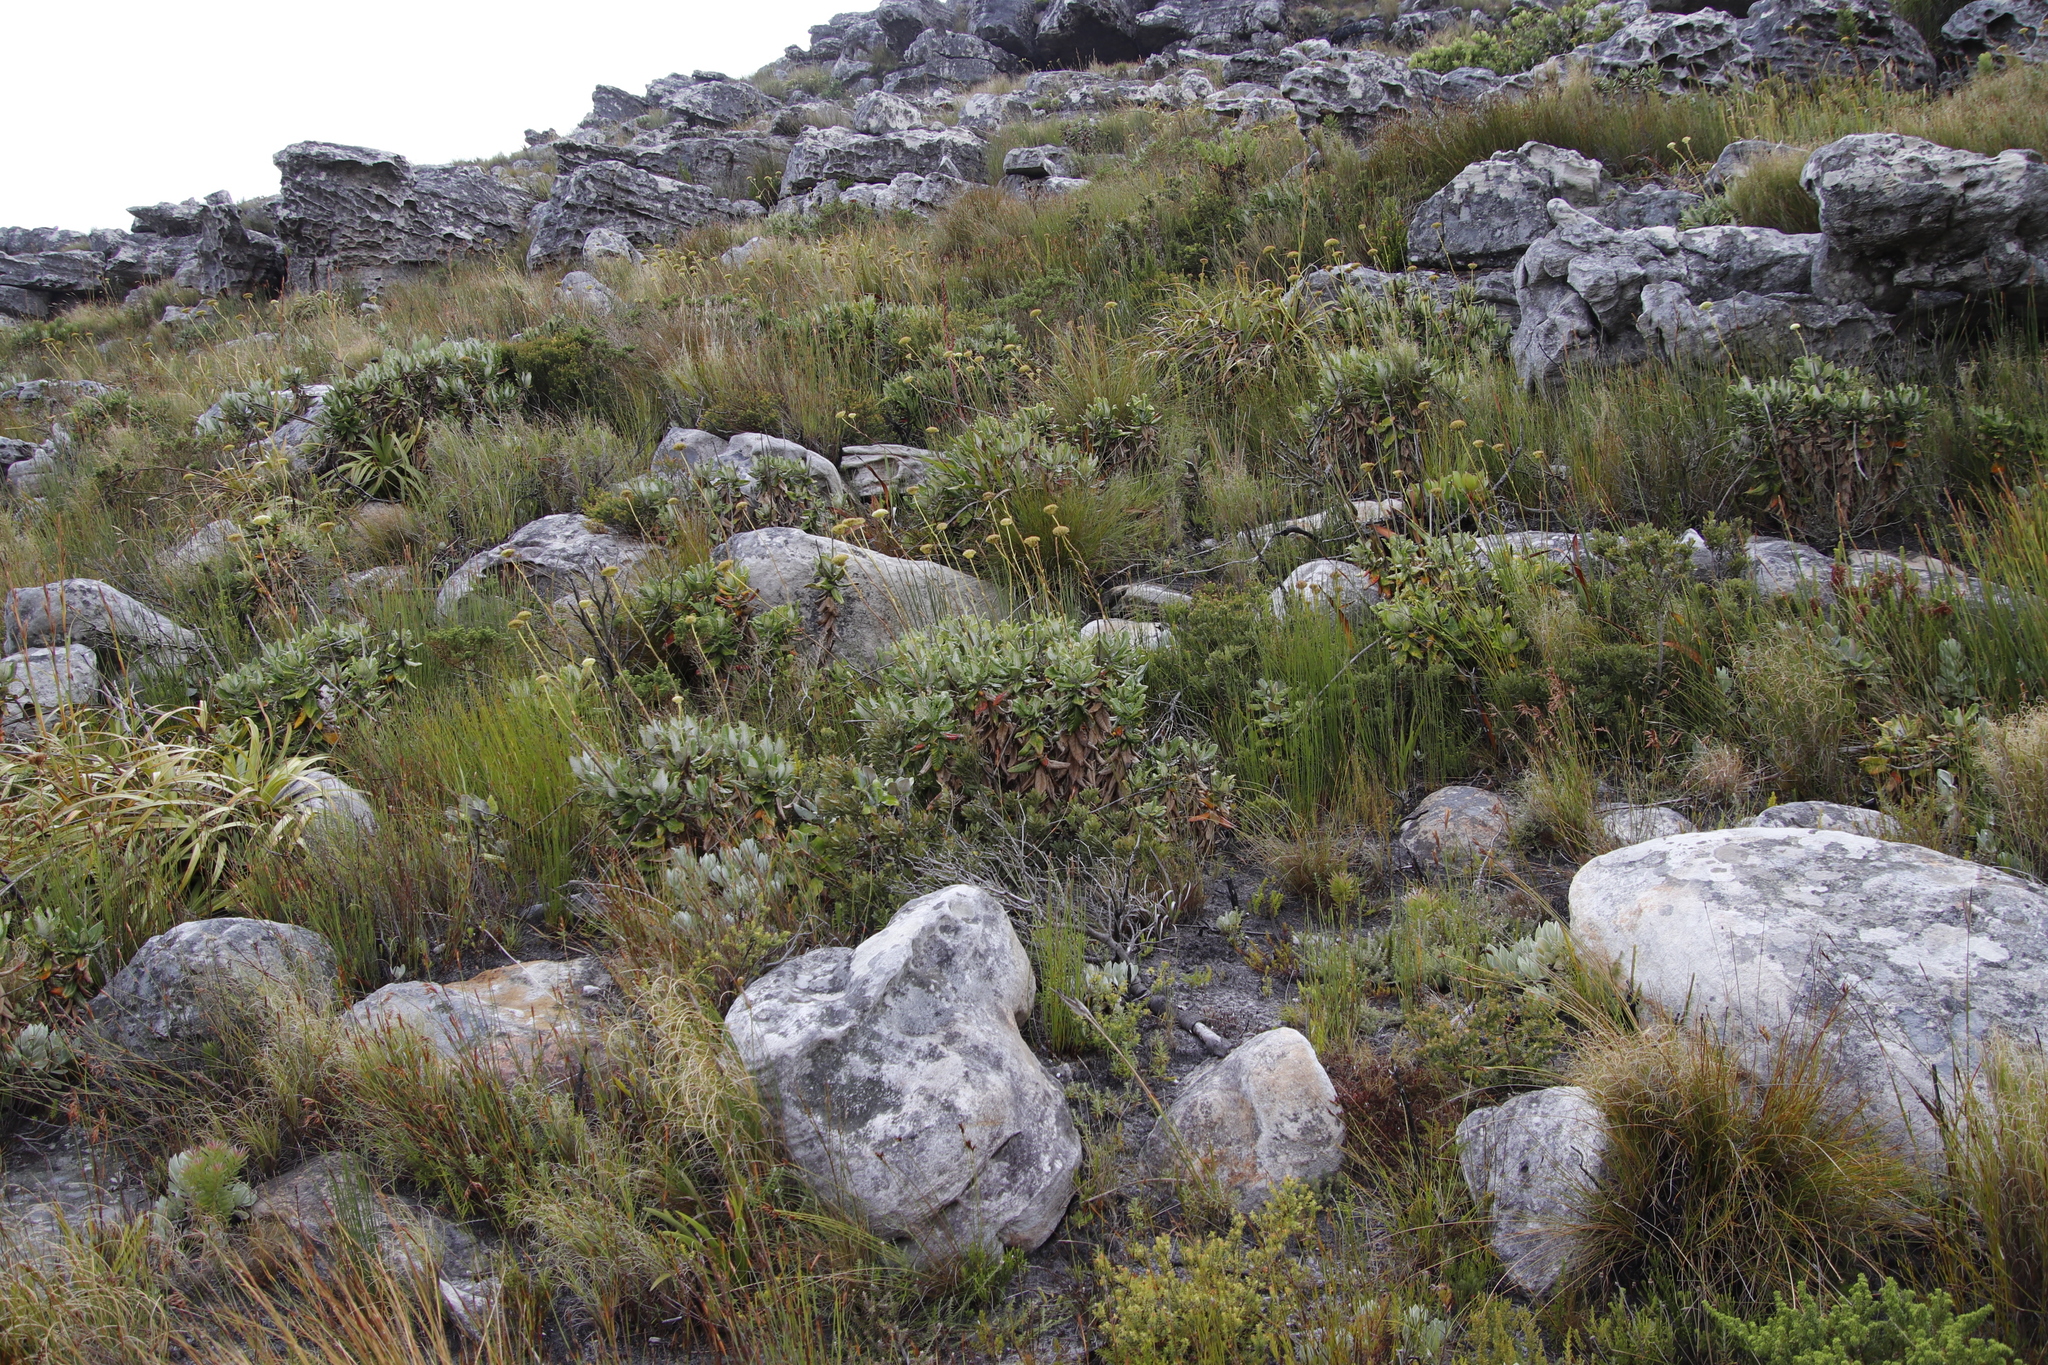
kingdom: Plantae
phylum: Tracheophyta
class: Magnoliopsida
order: Apiales
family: Apiaceae
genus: Hermas
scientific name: Hermas villosa
